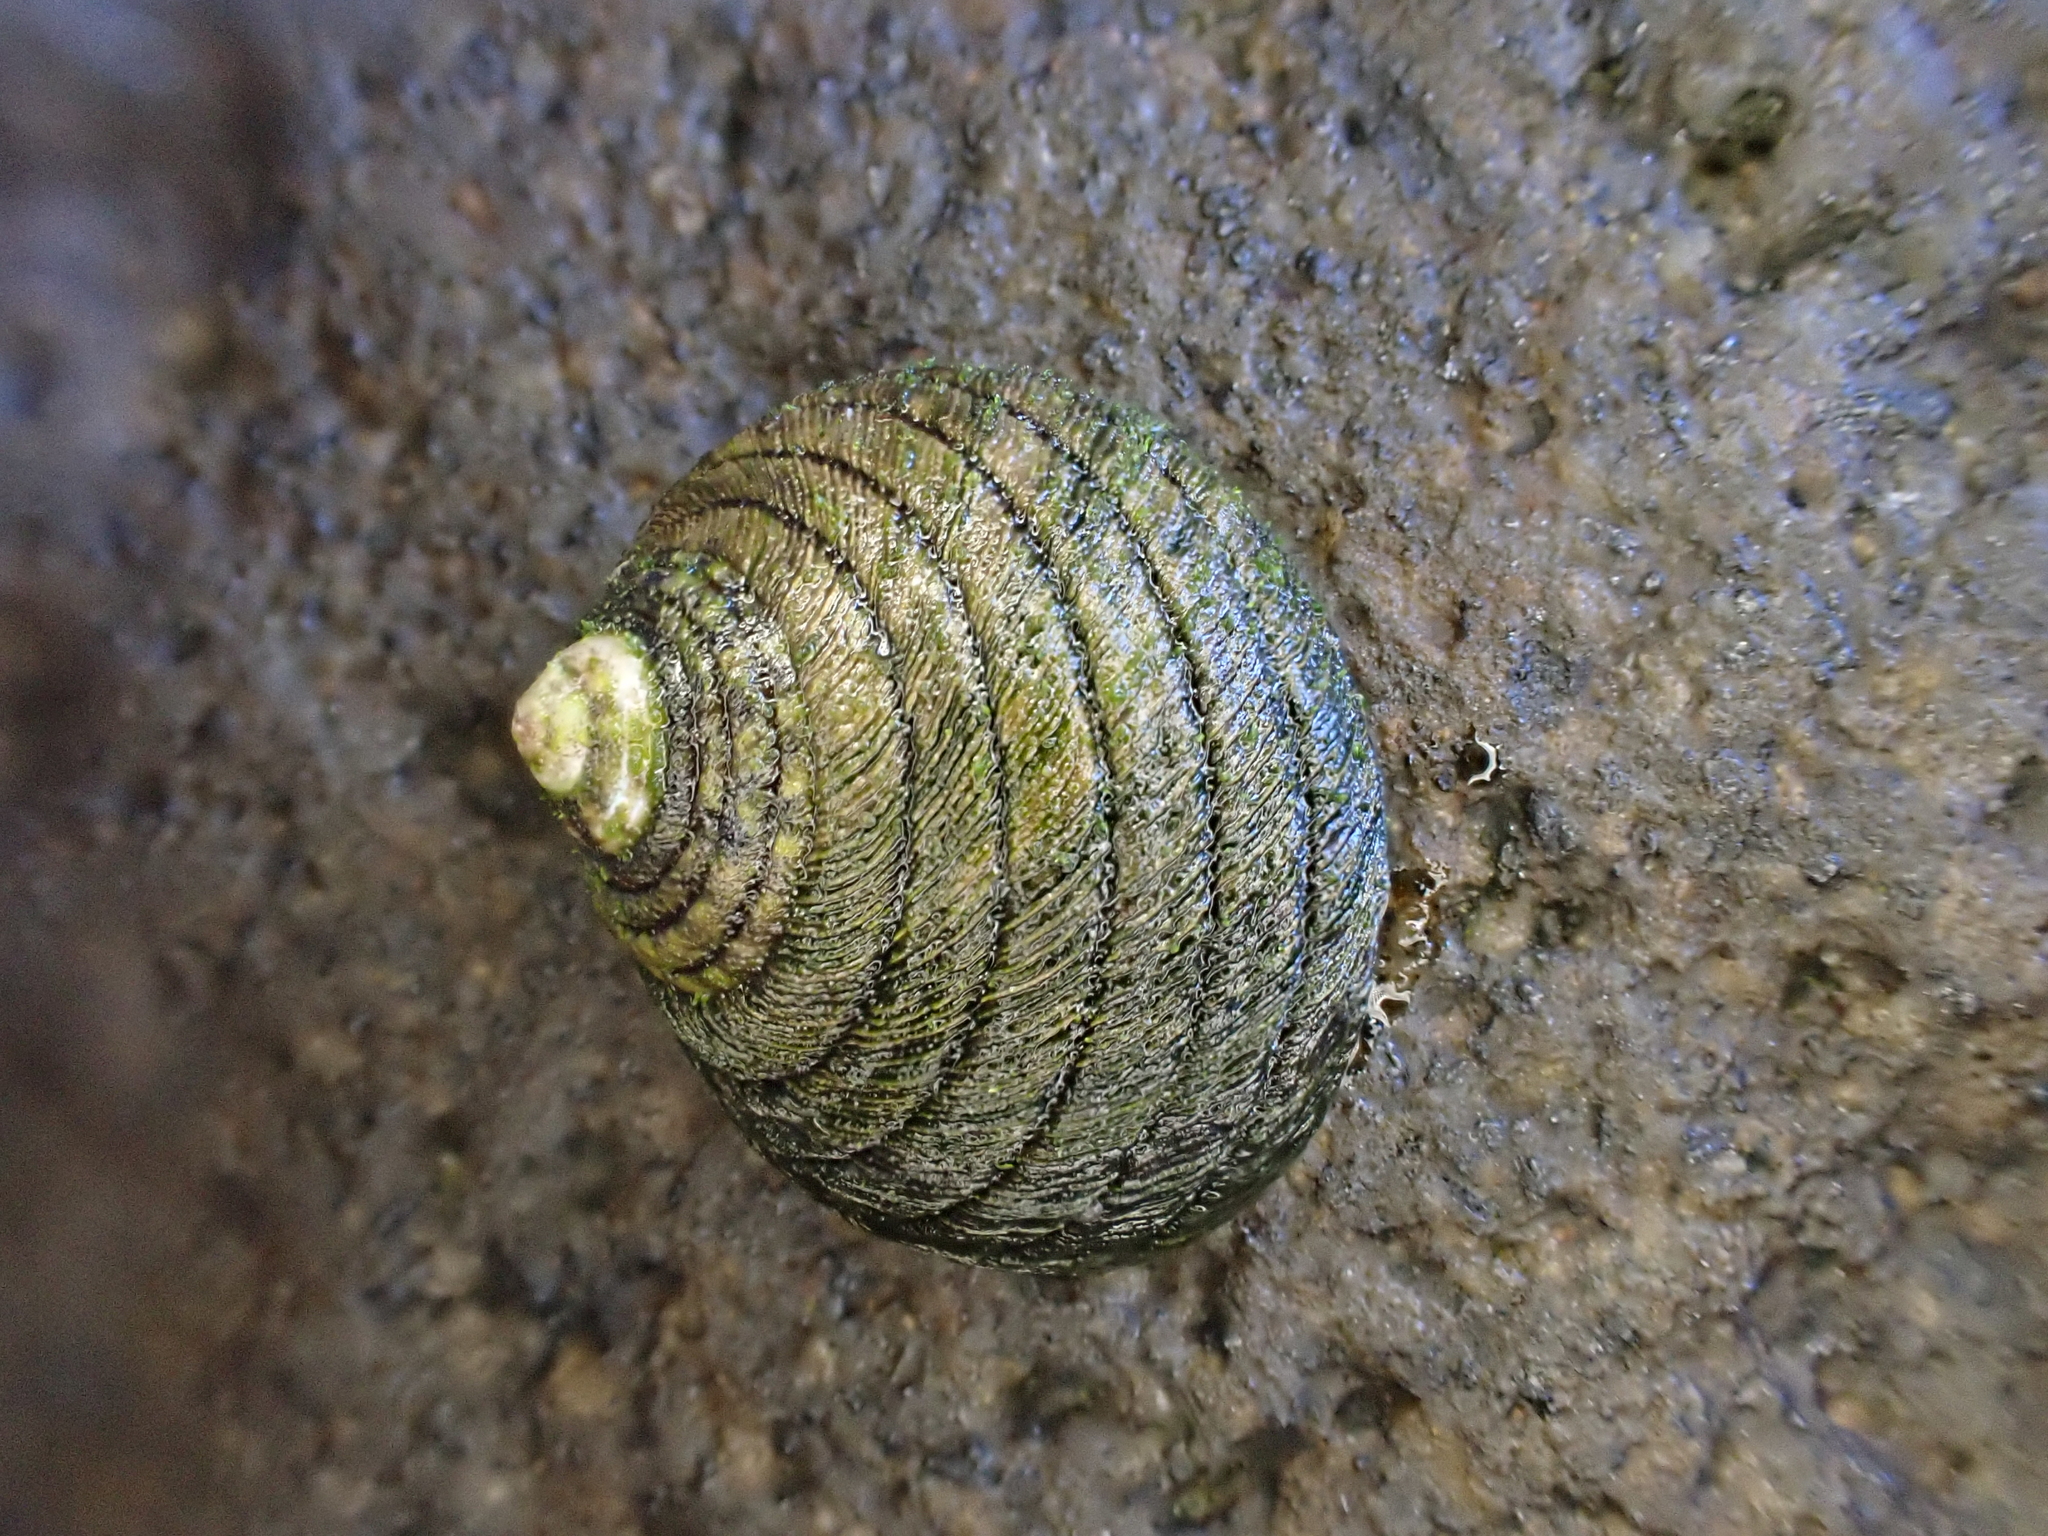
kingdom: Animalia
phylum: Mollusca
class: Gastropoda
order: Trochida
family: Trochidae
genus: Diloma
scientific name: Diloma aethiops
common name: Scorched monodont
